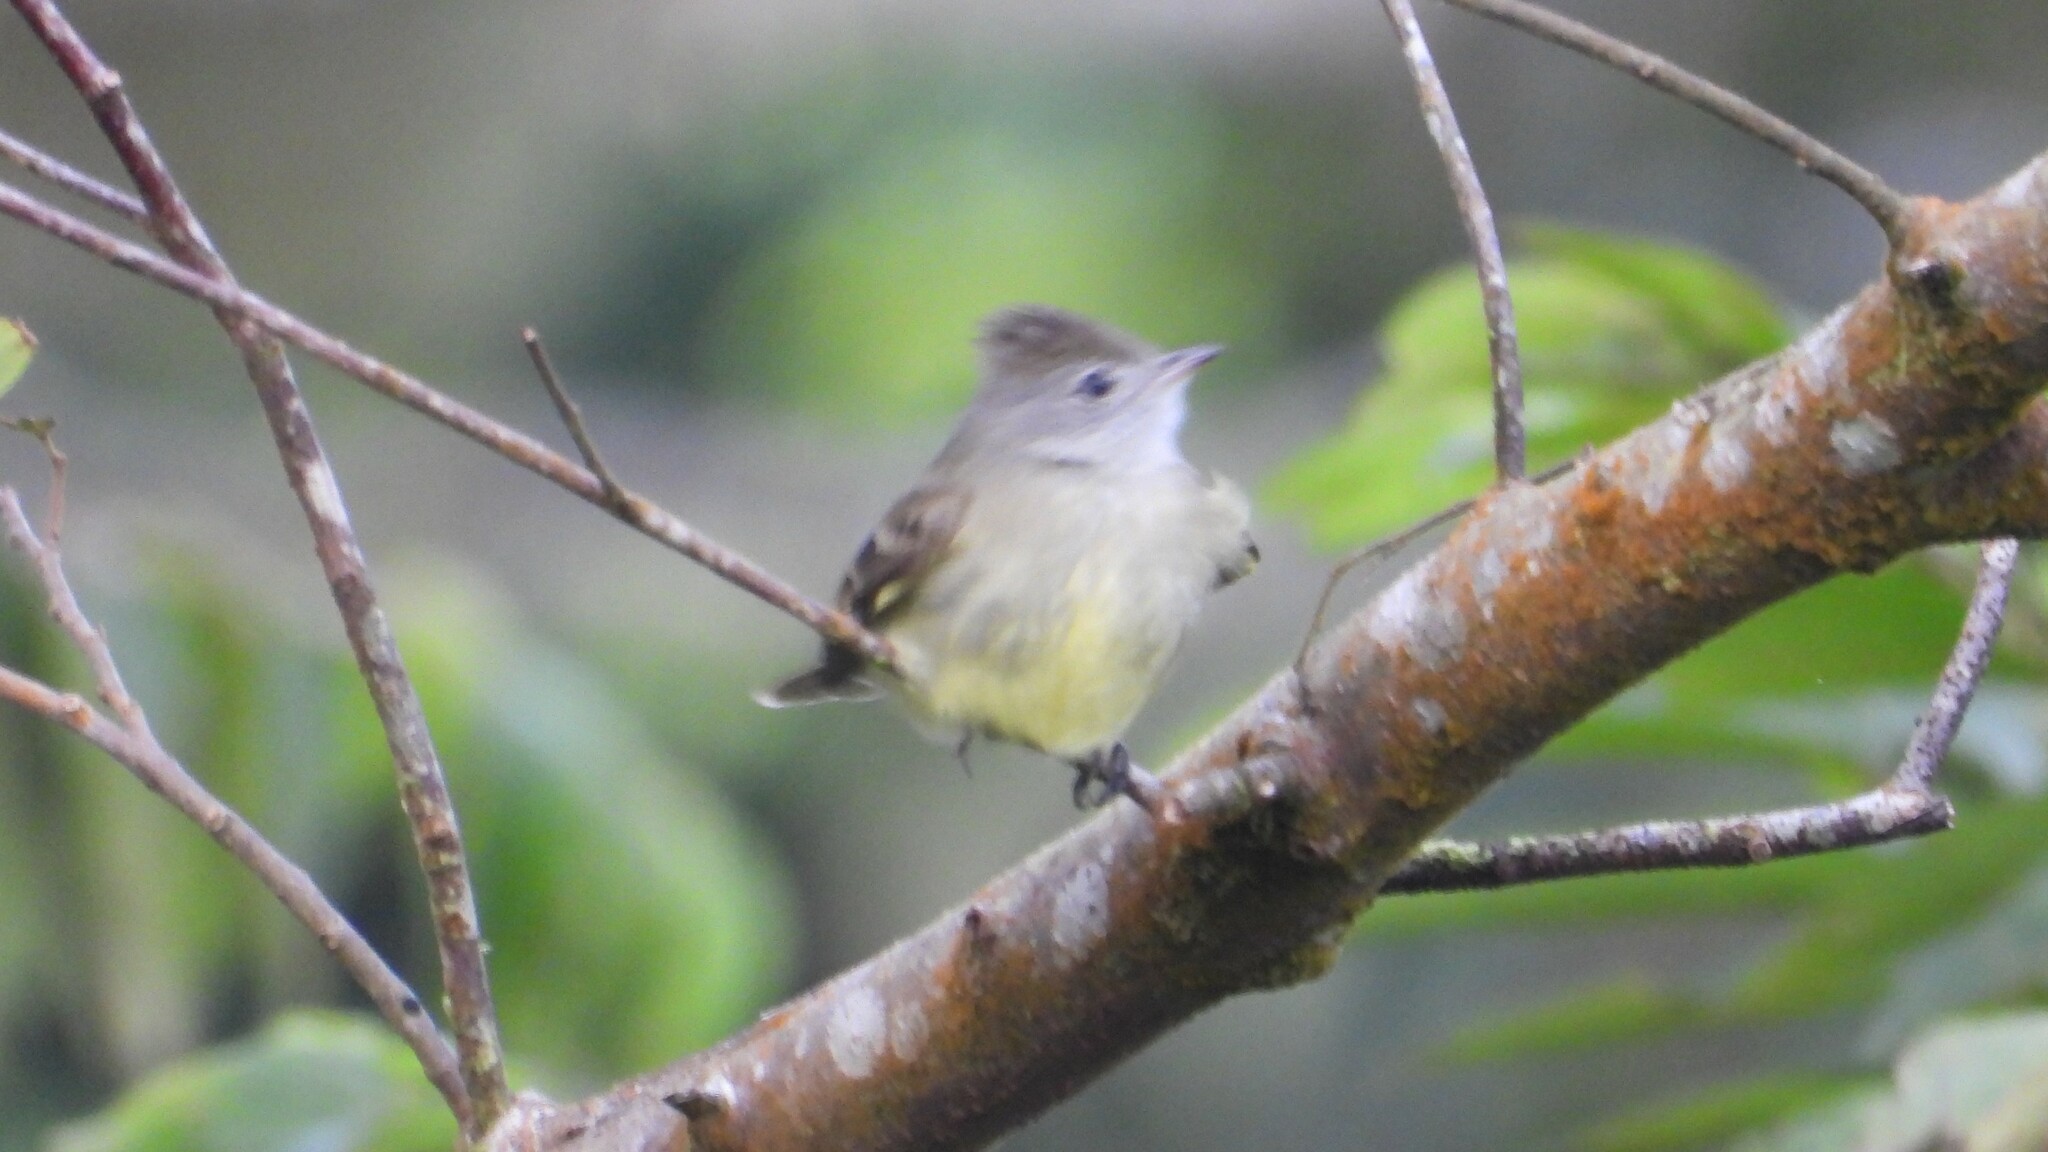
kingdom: Animalia
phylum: Chordata
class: Aves
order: Passeriformes
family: Tyrannidae
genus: Elaenia
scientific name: Elaenia flavogaster
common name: Yellow-bellied elaenia
